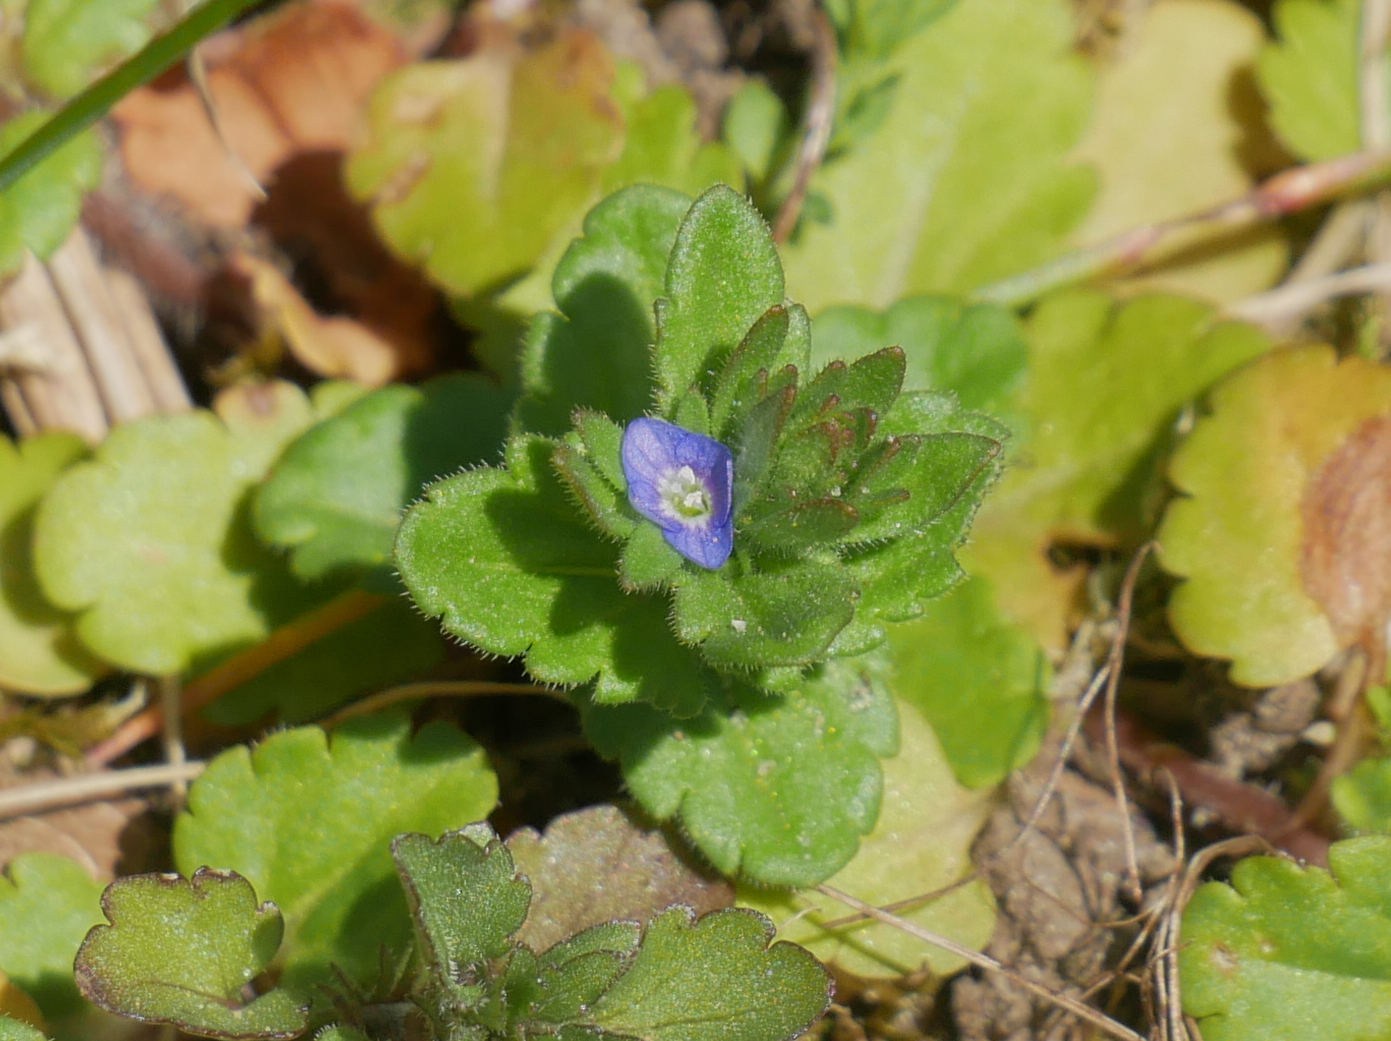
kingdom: Plantae
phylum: Tracheophyta
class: Magnoliopsida
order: Lamiales
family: Plantaginaceae
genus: Veronica
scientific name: Veronica arvensis
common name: Corn speedwell
